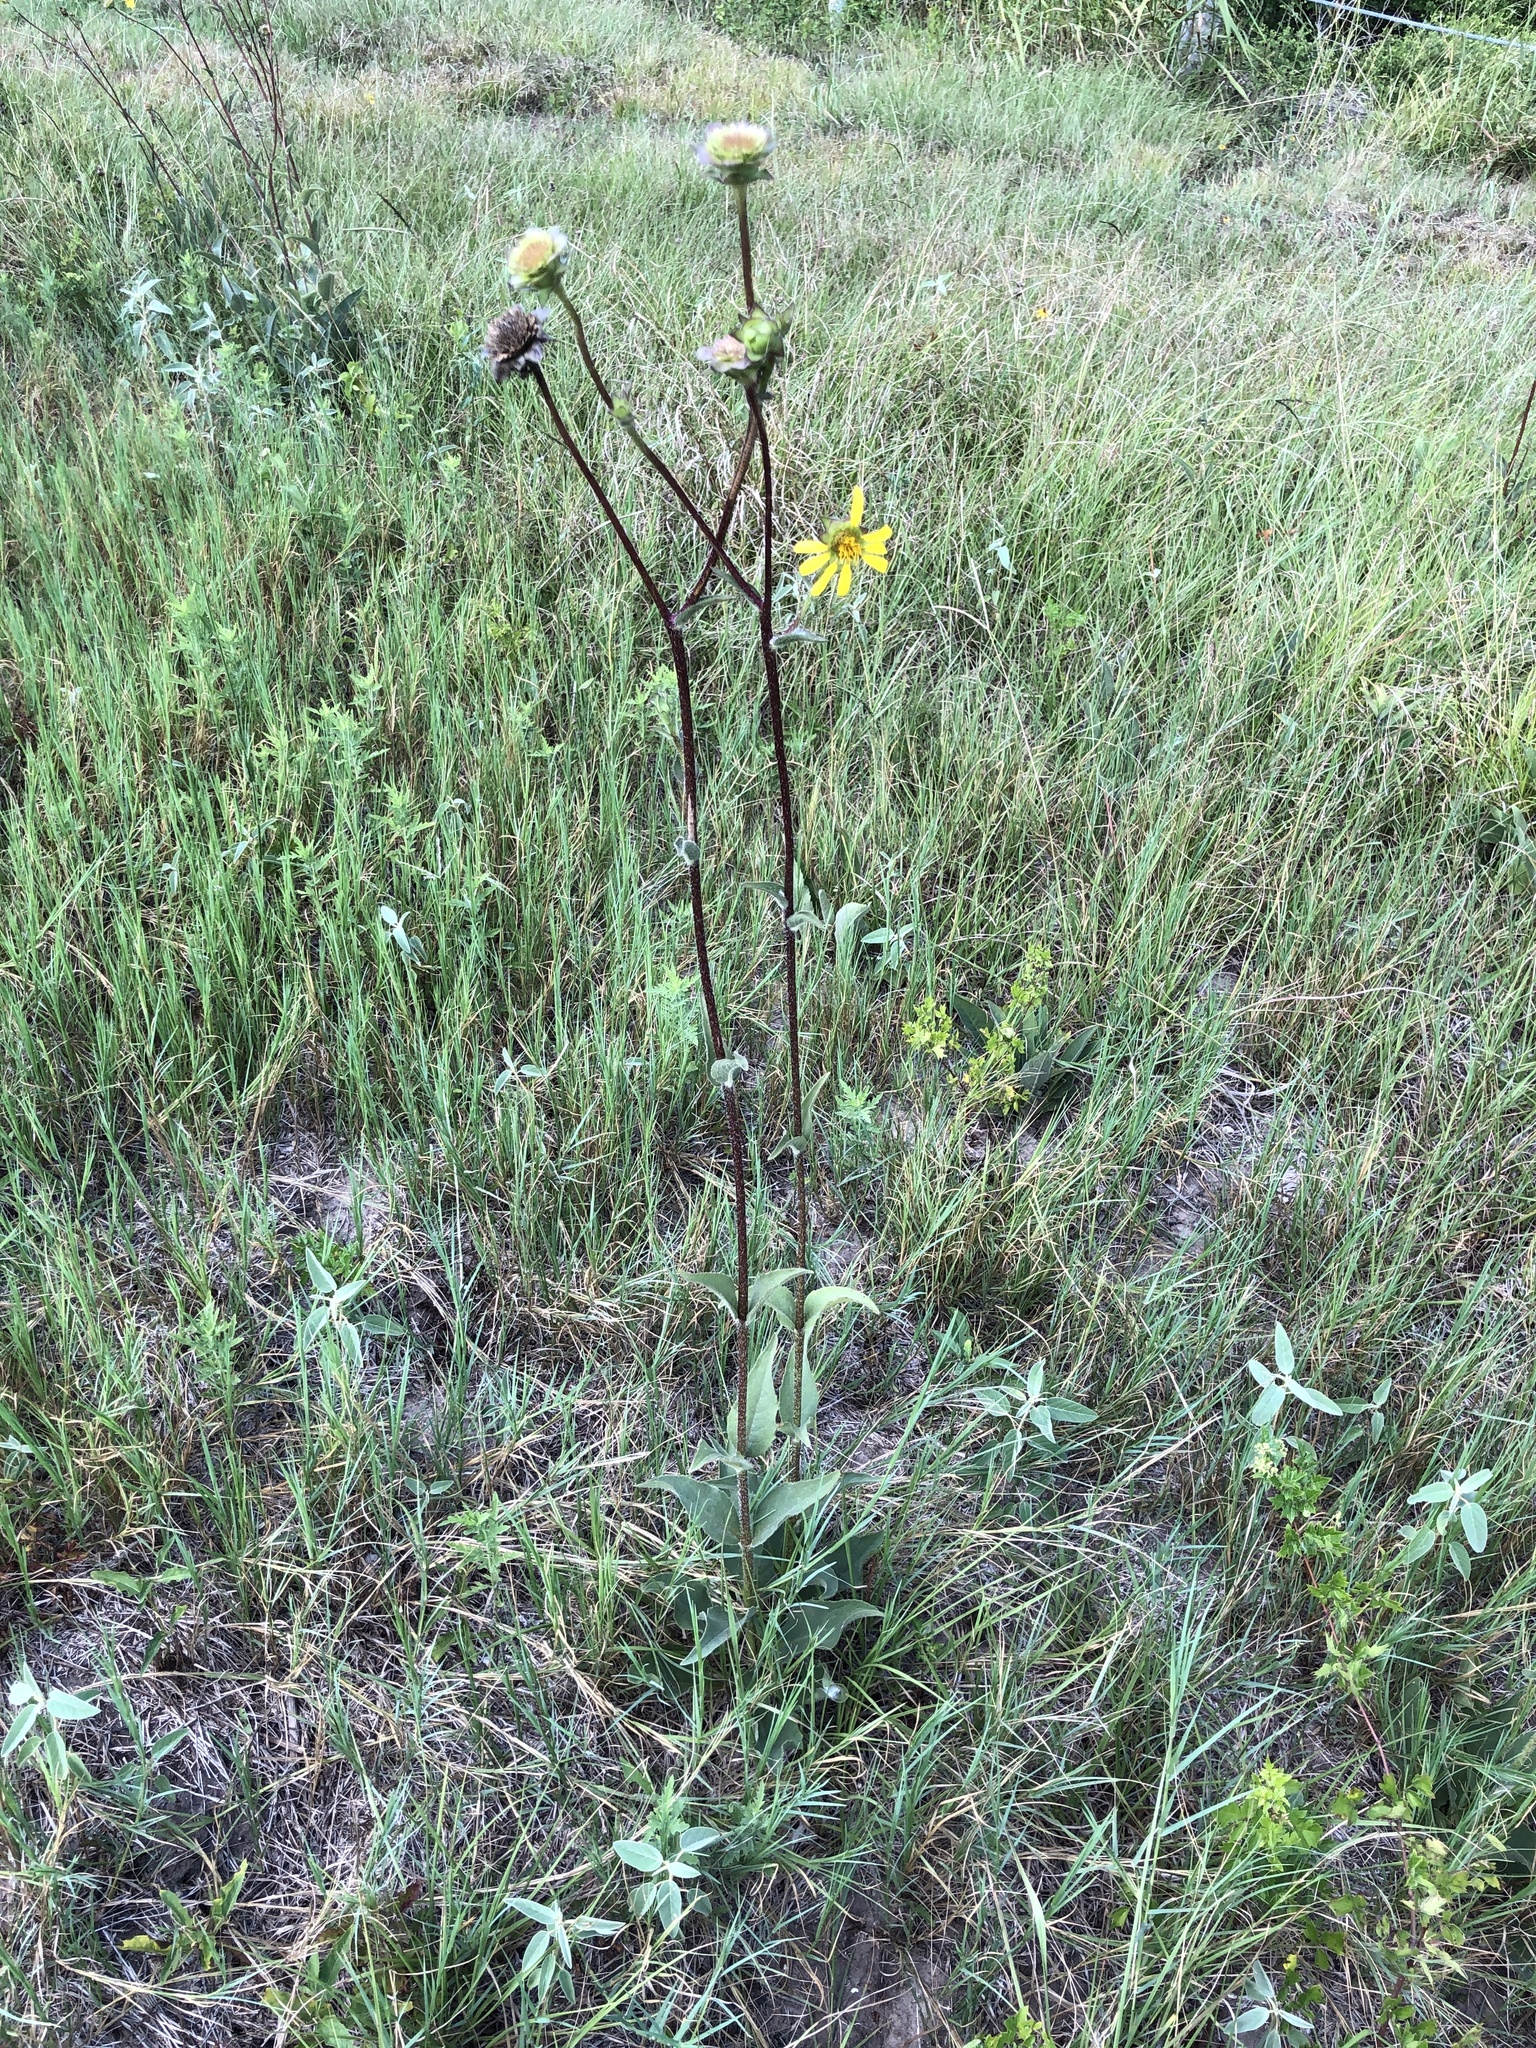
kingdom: Plantae
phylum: Tracheophyta
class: Magnoliopsida
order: Asterales
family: Asteraceae
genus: Silphium
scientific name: Silphium radula
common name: Roughleaf rosinweed
